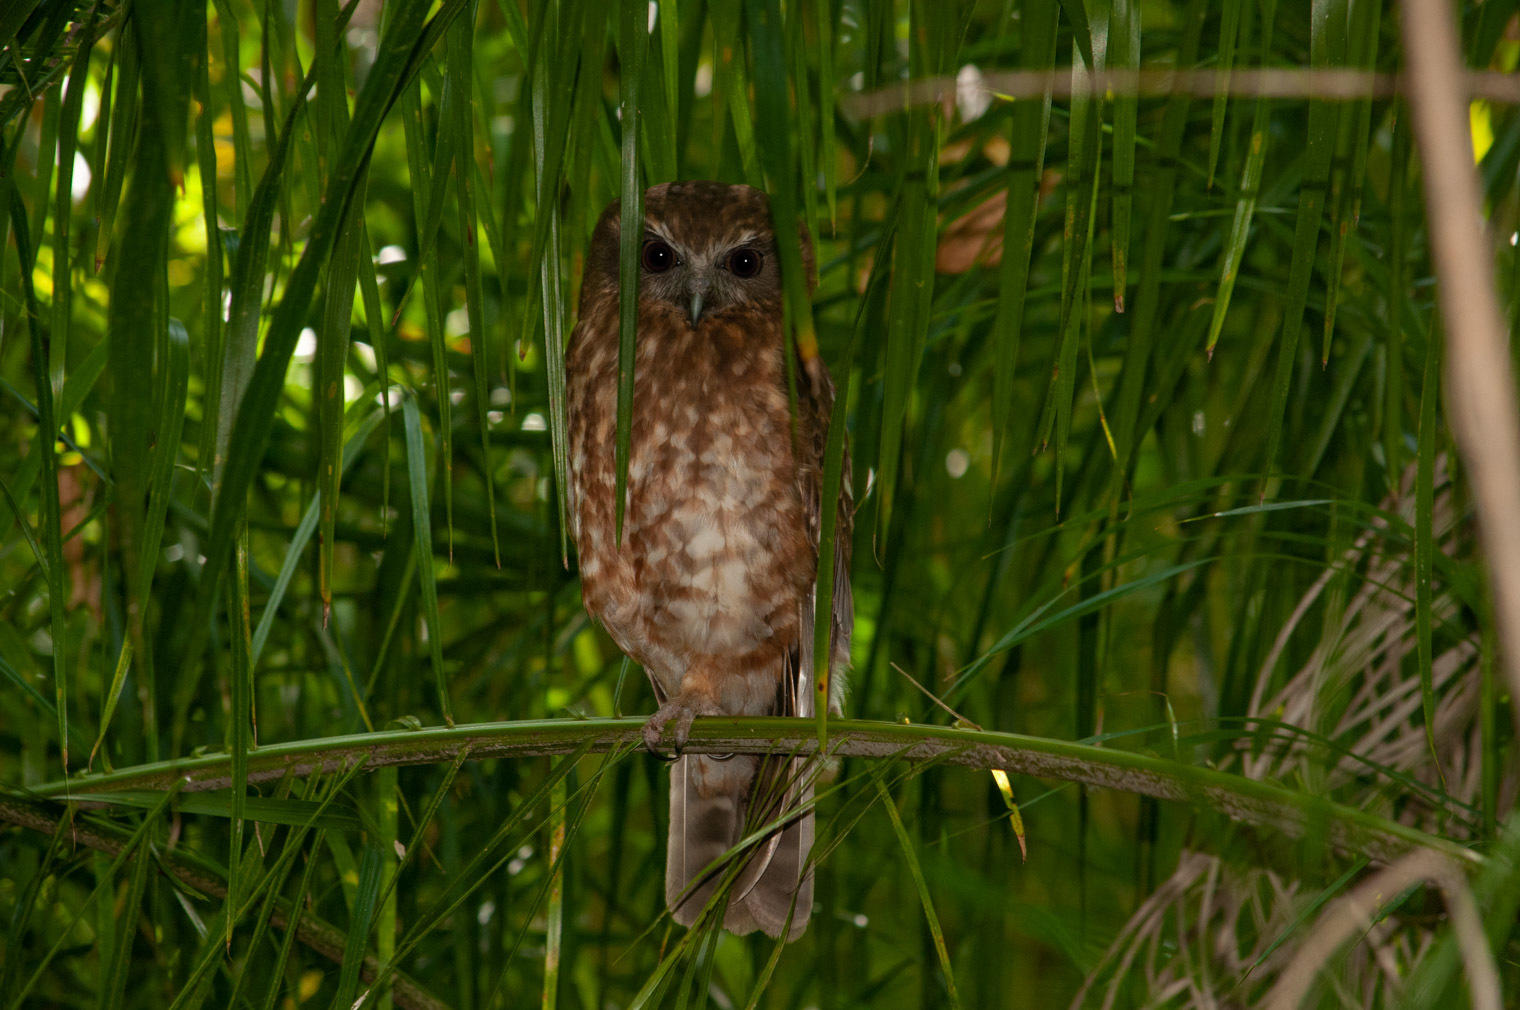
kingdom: Animalia
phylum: Chordata
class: Aves
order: Strigiformes
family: Strigidae
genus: Ninox
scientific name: Ninox boobook
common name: Southern boobook
